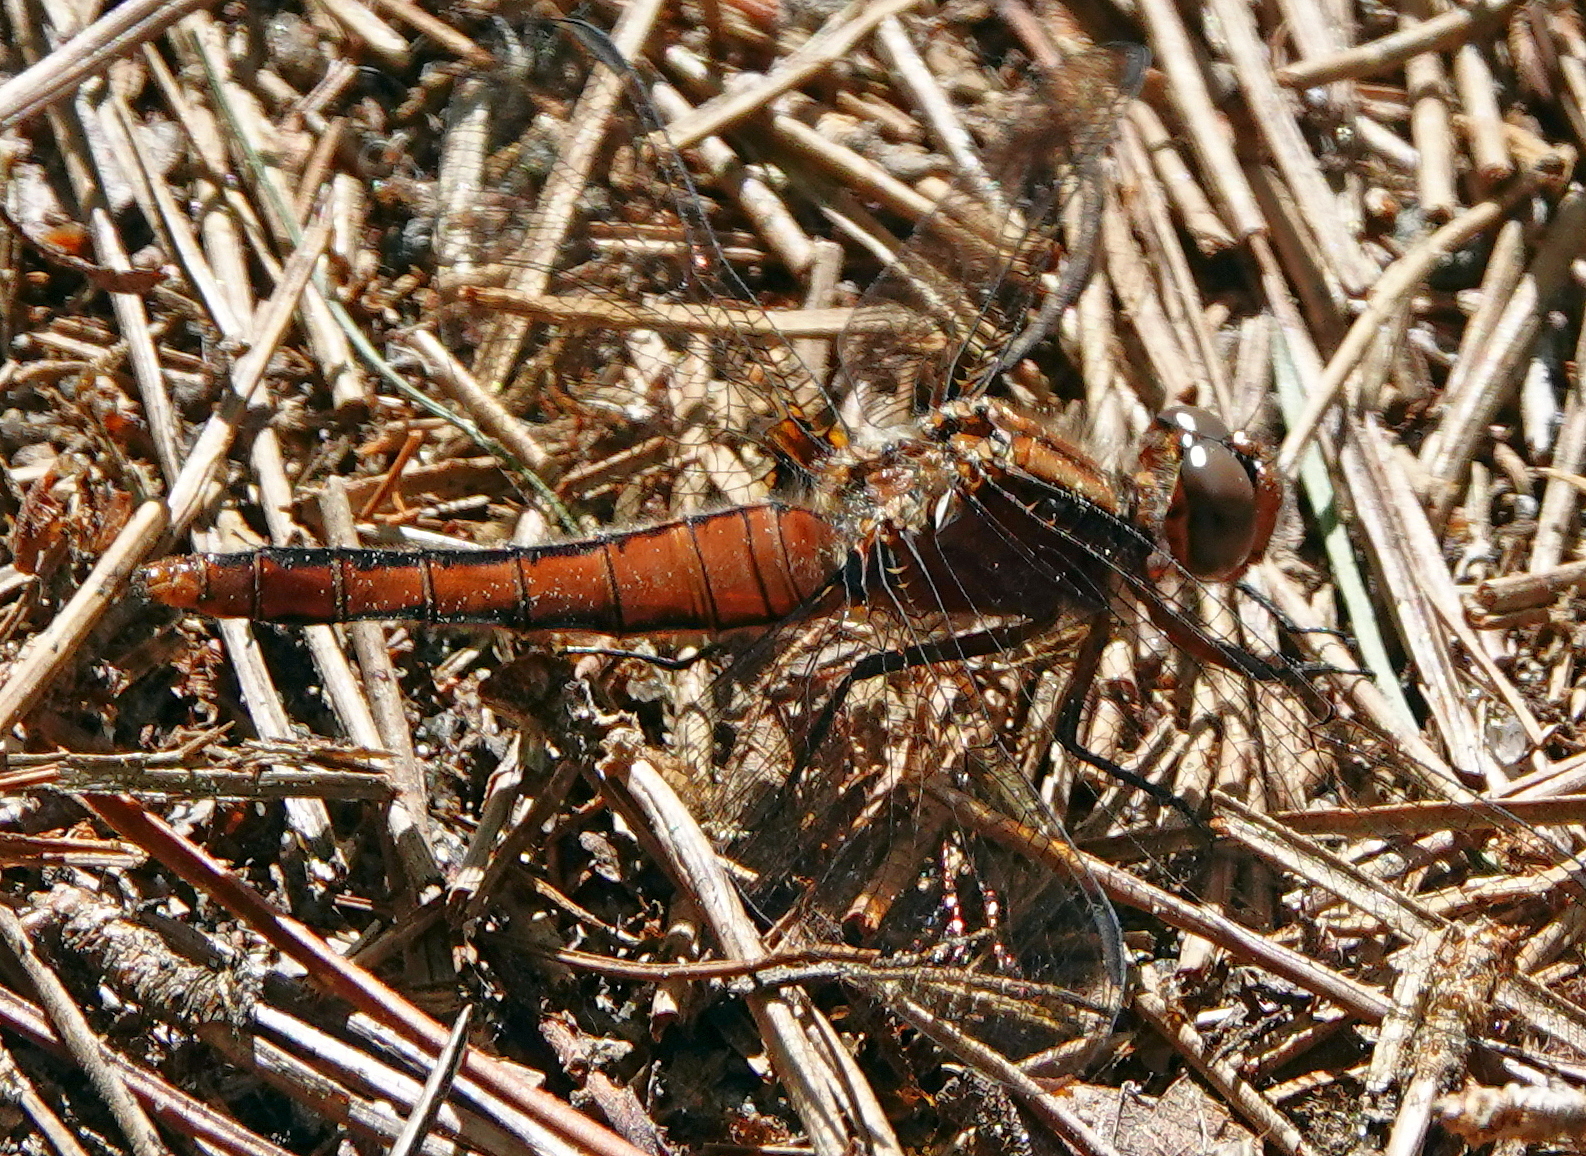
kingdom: Animalia
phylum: Arthropoda
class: Insecta
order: Odonata
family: Libellulidae
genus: Ladona
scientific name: Ladona julia
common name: Chalk-fronted corporal
